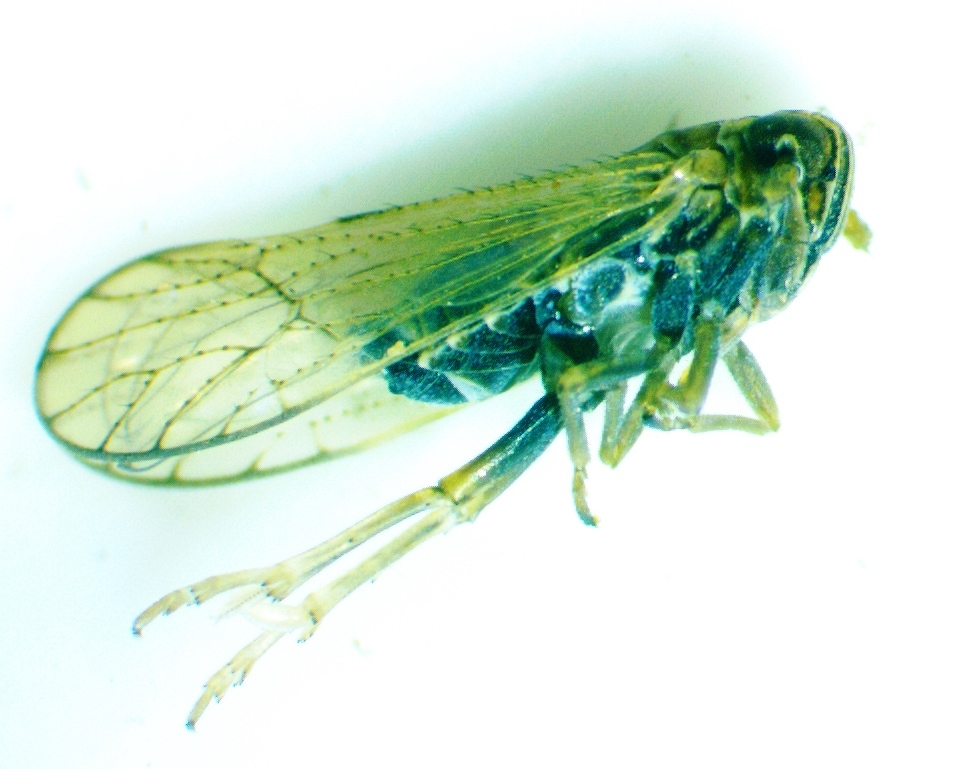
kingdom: Animalia
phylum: Arthropoda
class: Insecta
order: Hemiptera
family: Delphacidae
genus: Metadelphax
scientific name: Metadelphax propinquus
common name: Plant hopper
